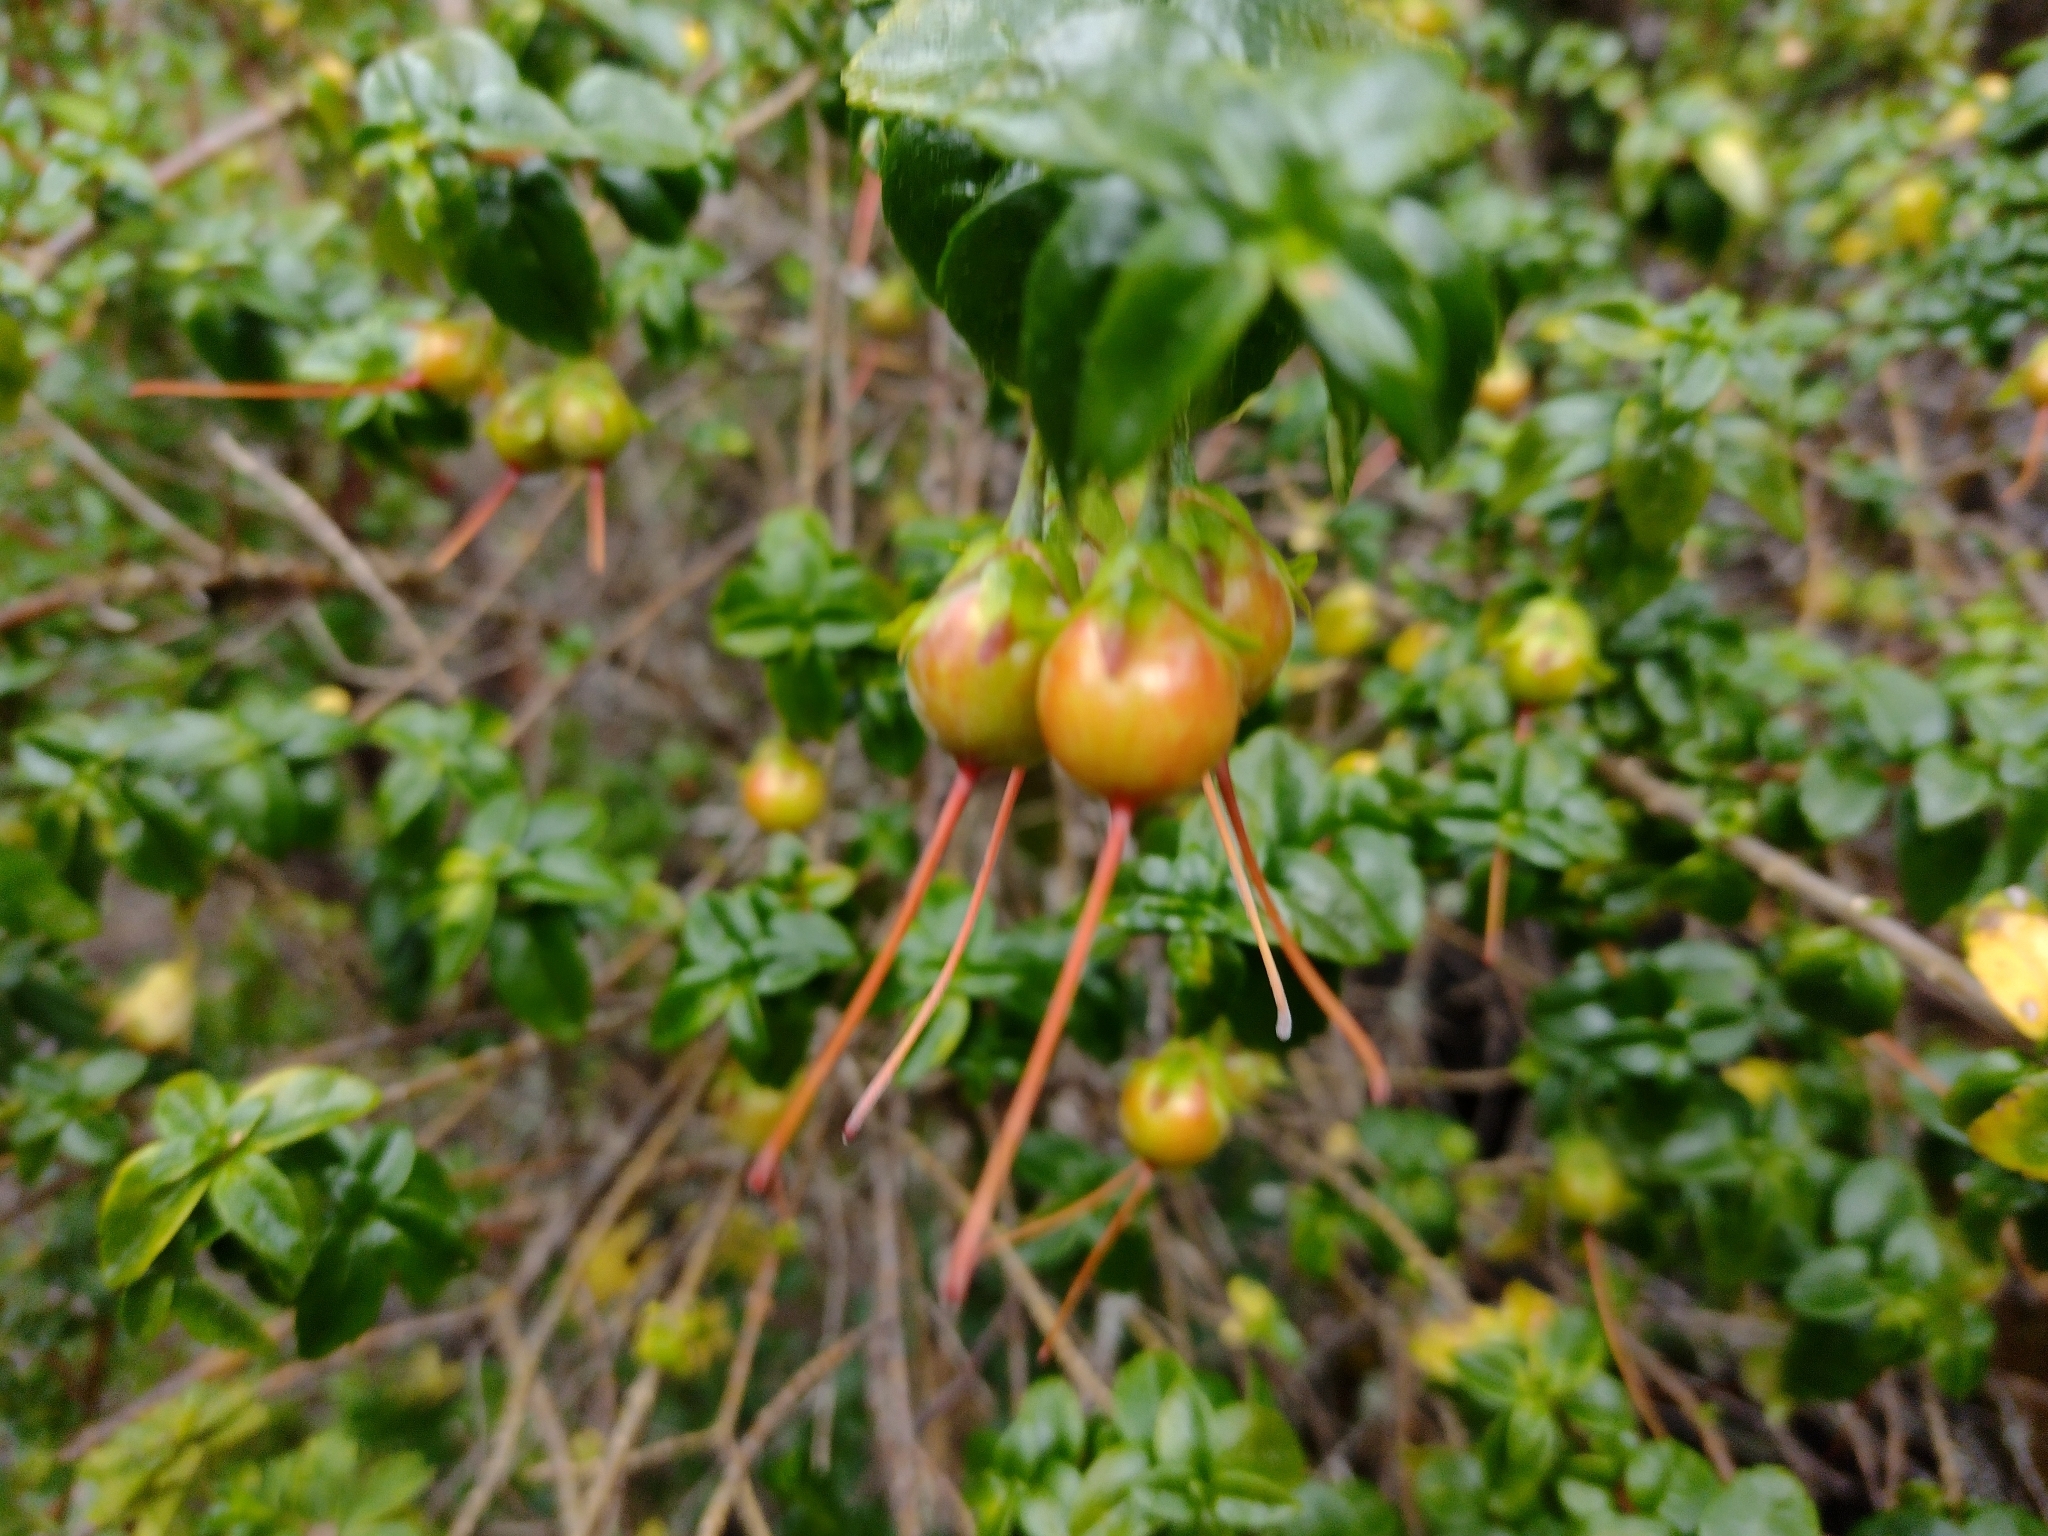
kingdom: Plantae
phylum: Tracheophyta
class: Magnoliopsida
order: Lamiales
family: Gesneriaceae
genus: Mitraria
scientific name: Mitraria coccinea
